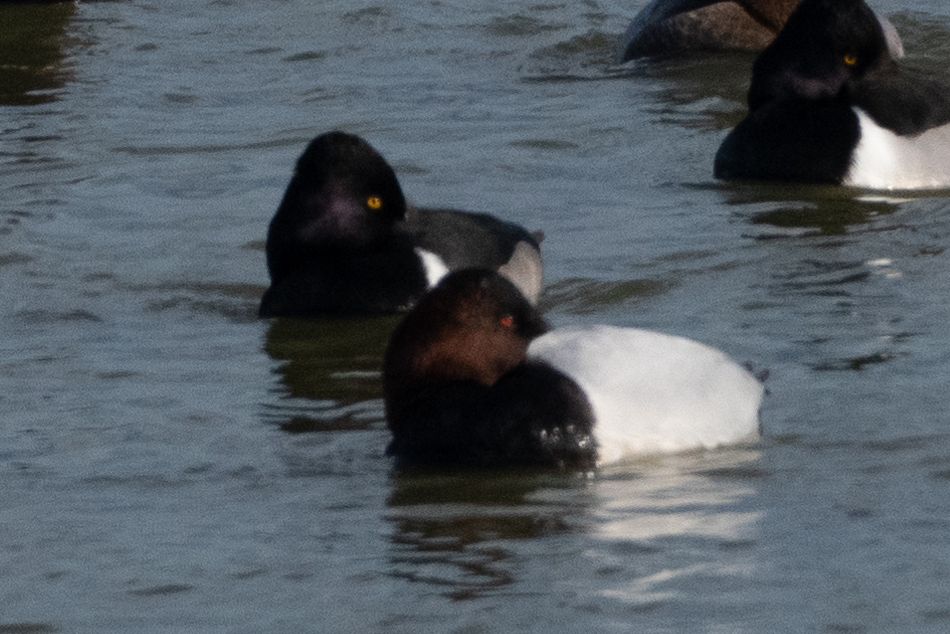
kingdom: Animalia
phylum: Chordata
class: Aves
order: Anseriformes
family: Anatidae
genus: Aythya
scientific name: Aythya valisineria
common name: Canvasback
